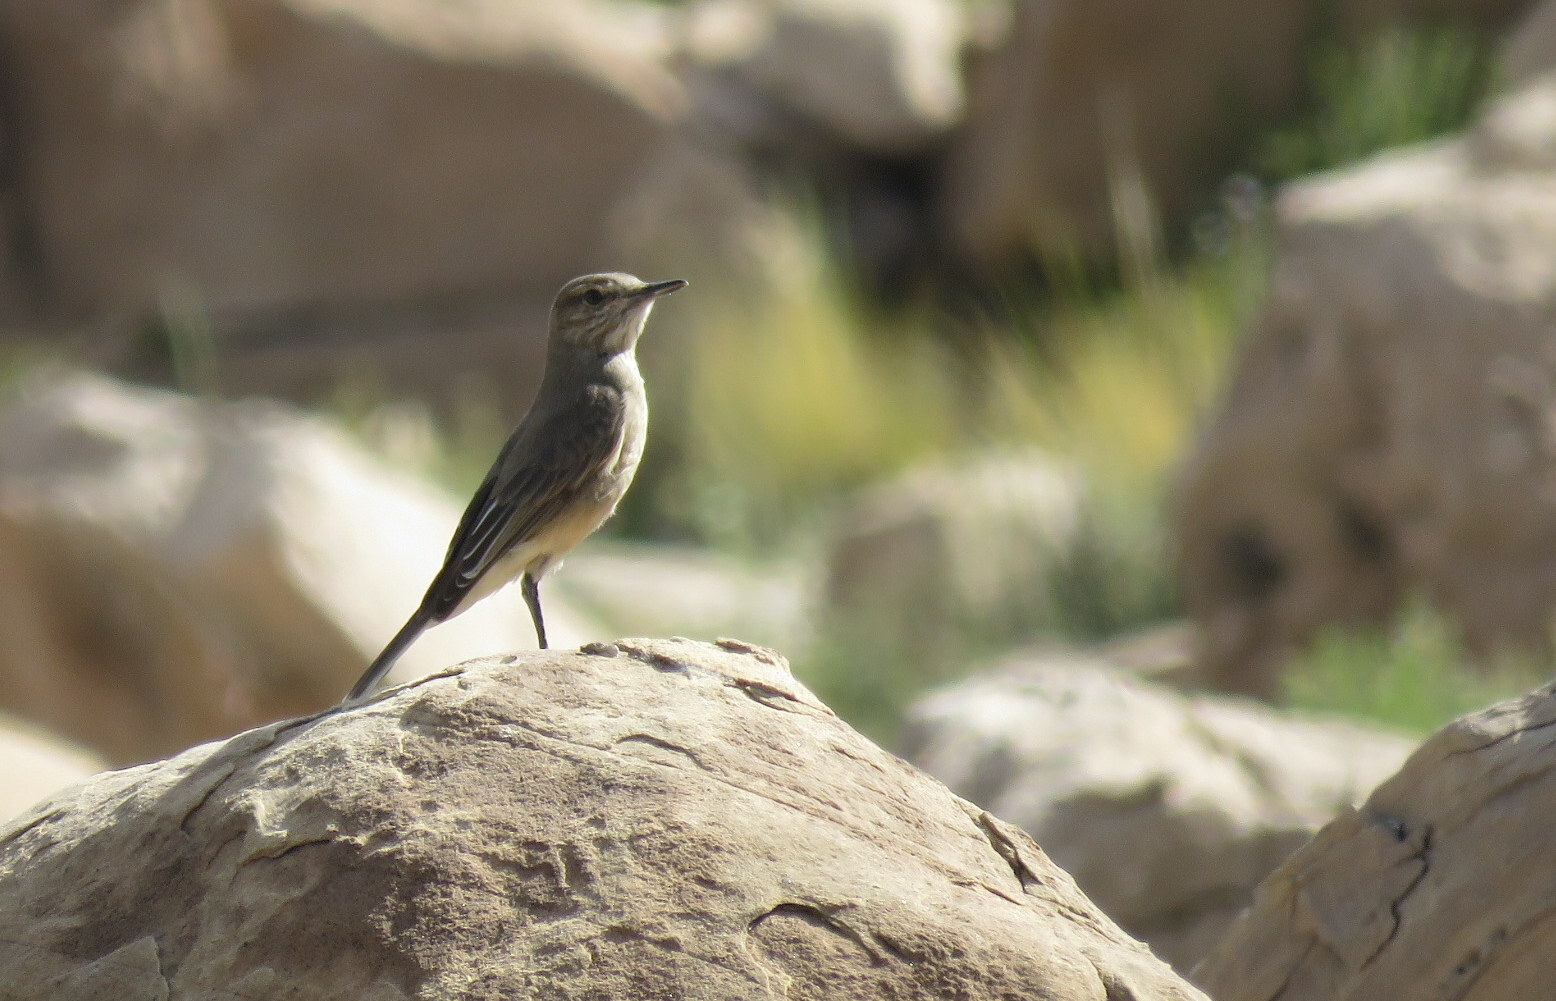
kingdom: Animalia
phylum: Chordata
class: Aves
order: Passeriformes
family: Tyrannidae
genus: Agriornis
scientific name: Agriornis montanus
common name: Black-billed shrike-tyrant
